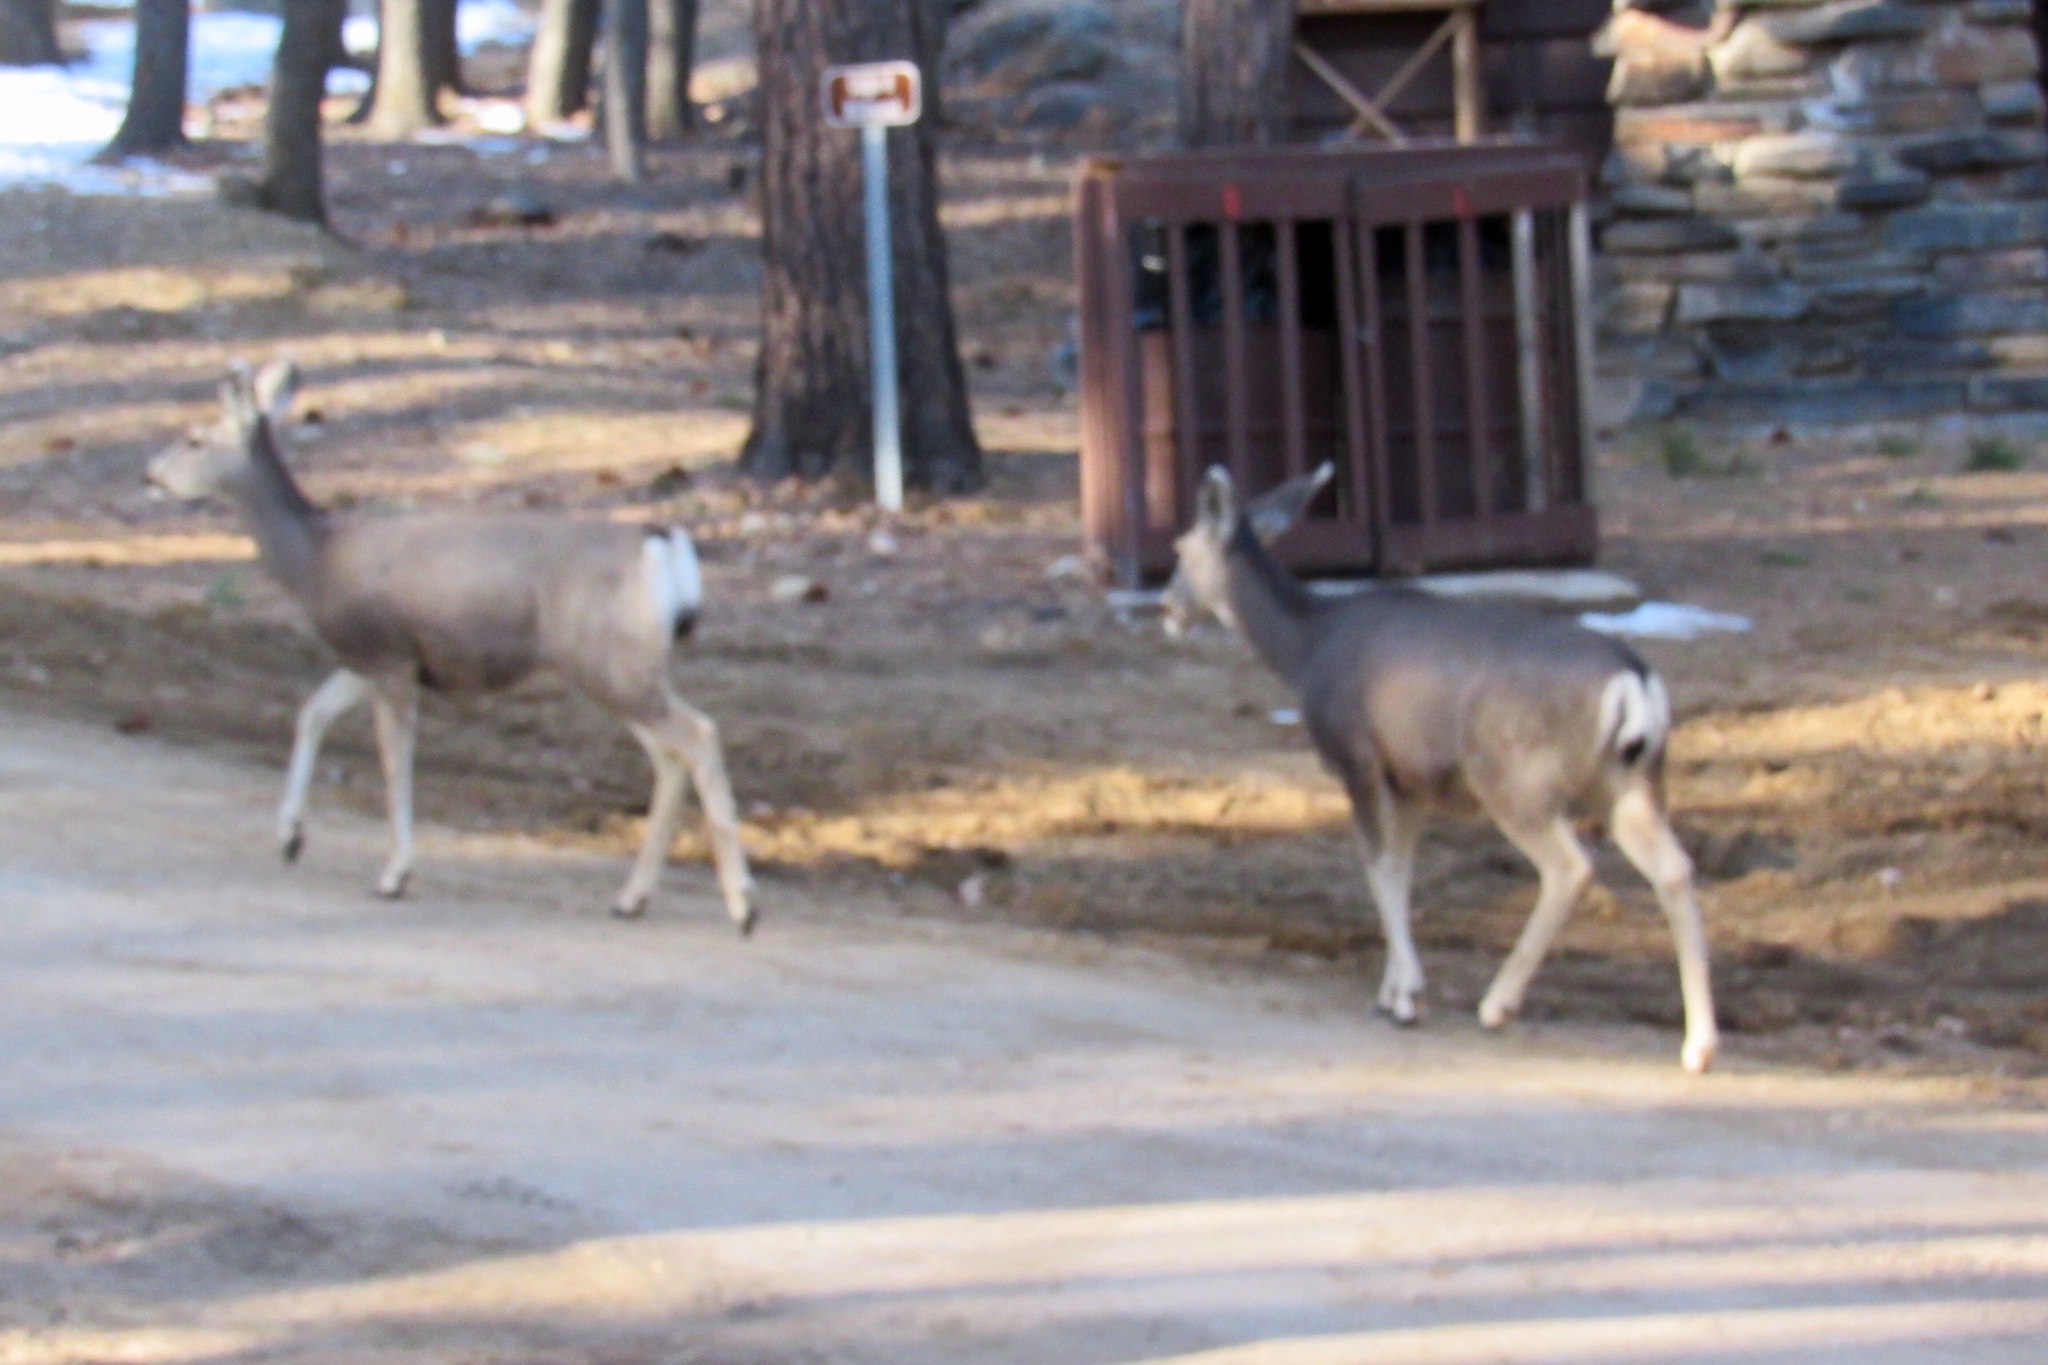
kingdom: Animalia
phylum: Chordata
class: Mammalia
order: Artiodactyla
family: Cervidae
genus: Odocoileus
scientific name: Odocoileus hemionus
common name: Mule deer
